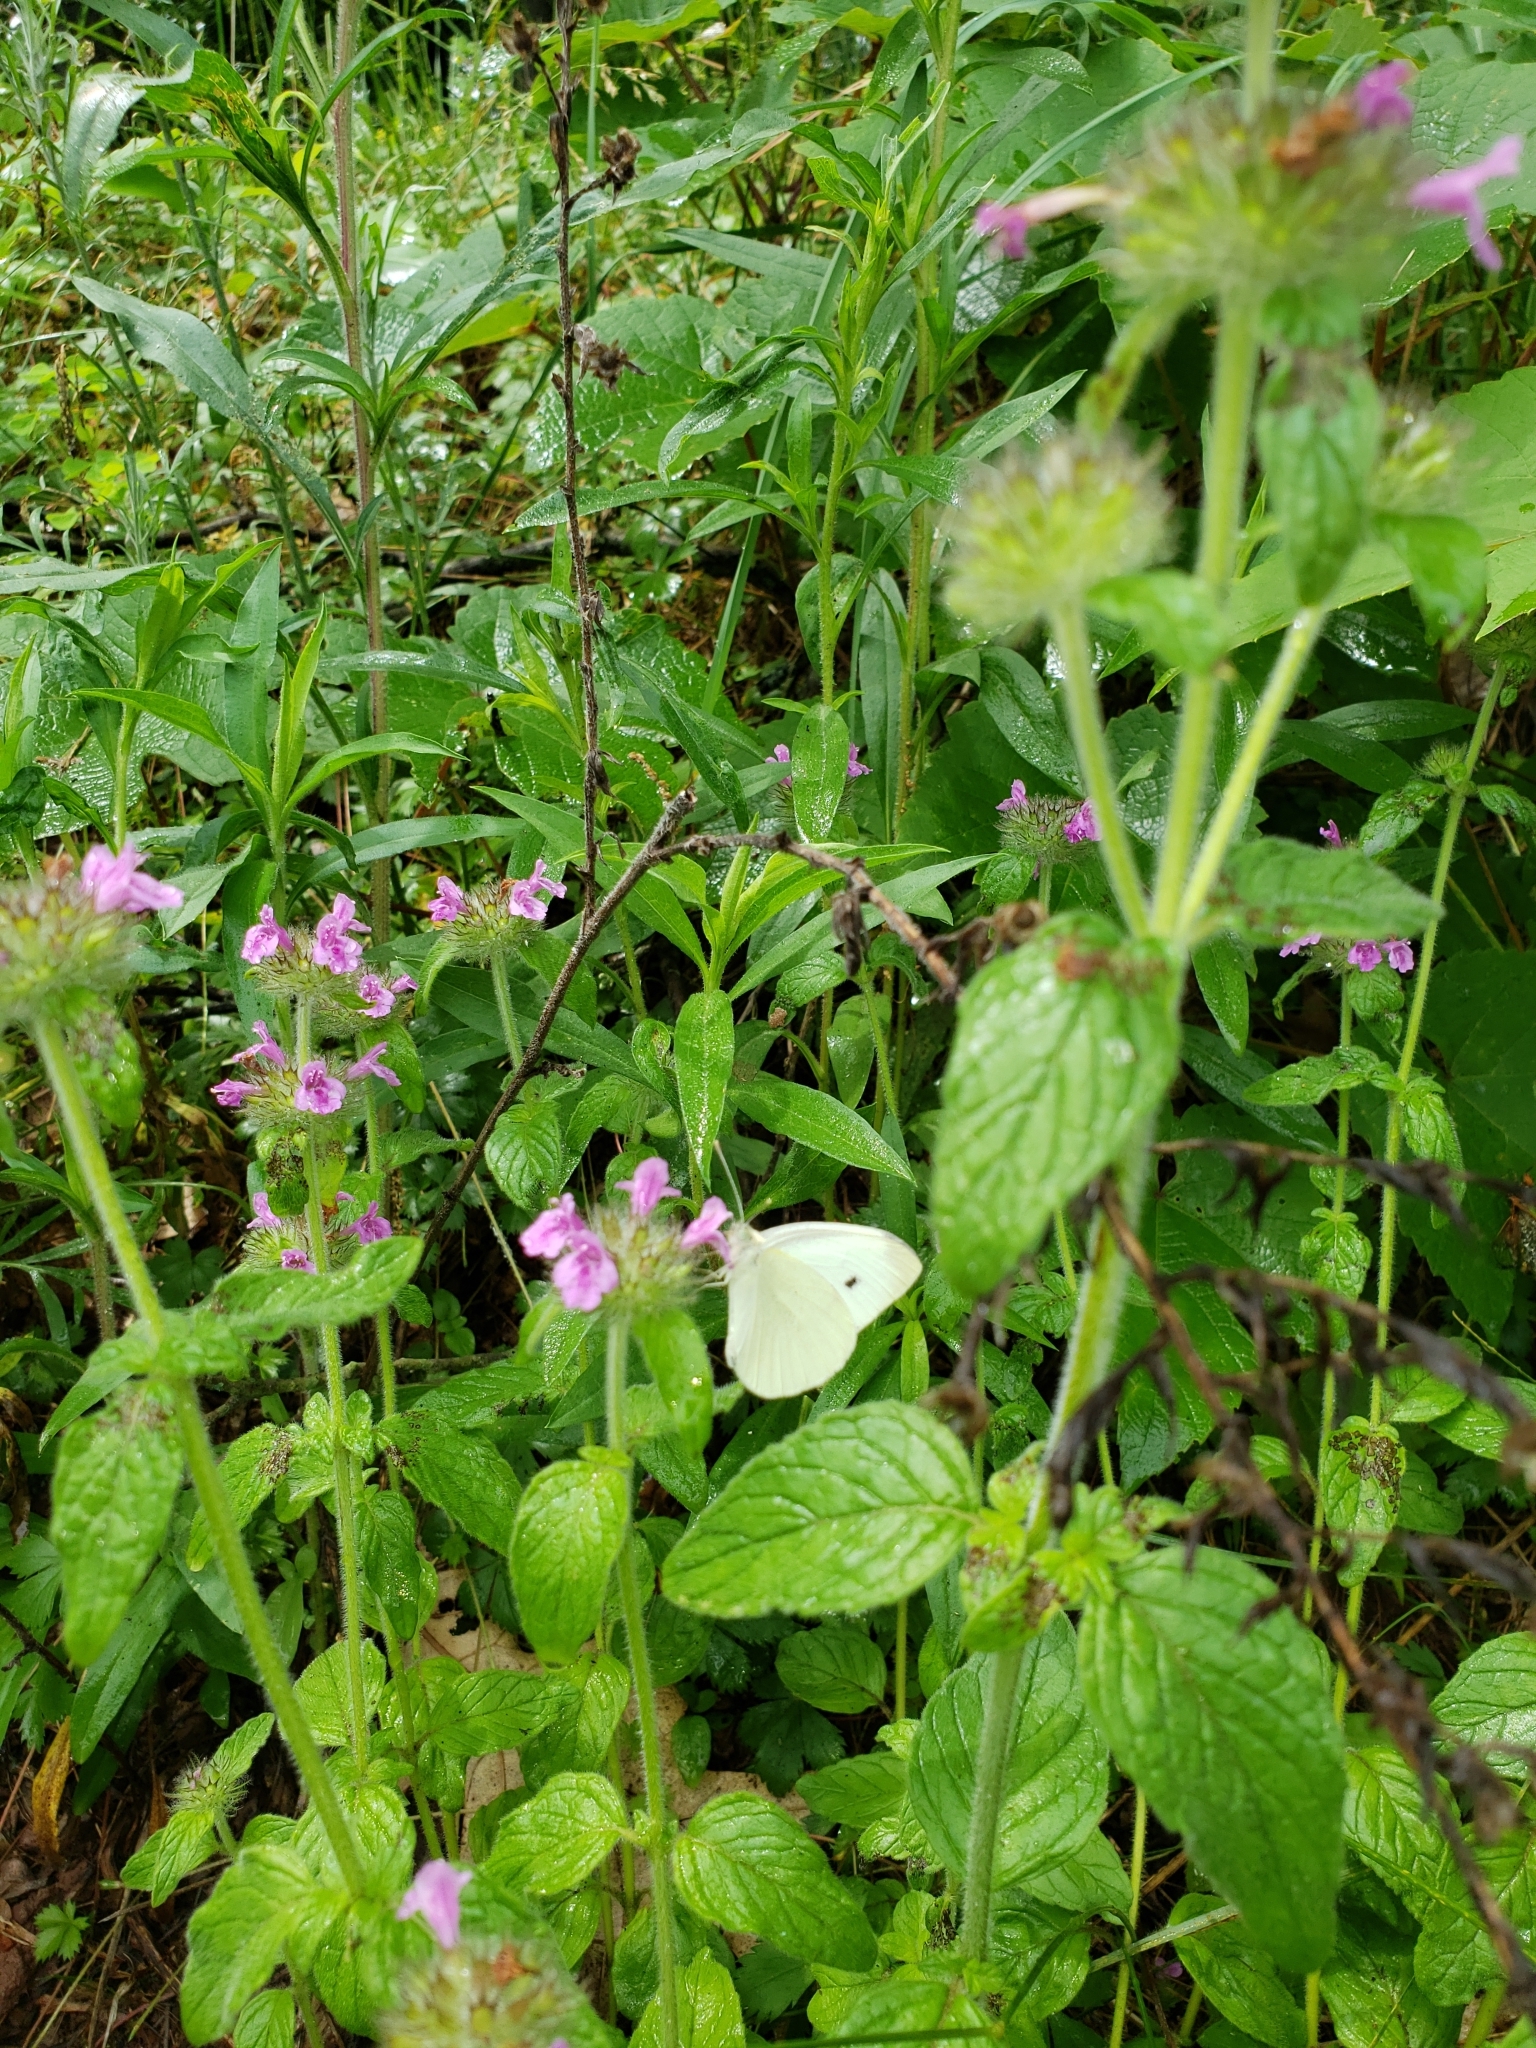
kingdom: Plantae
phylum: Tracheophyta
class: Magnoliopsida
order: Lamiales
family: Lamiaceae
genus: Clinopodium
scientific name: Clinopodium vulgare
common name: Wild basil
